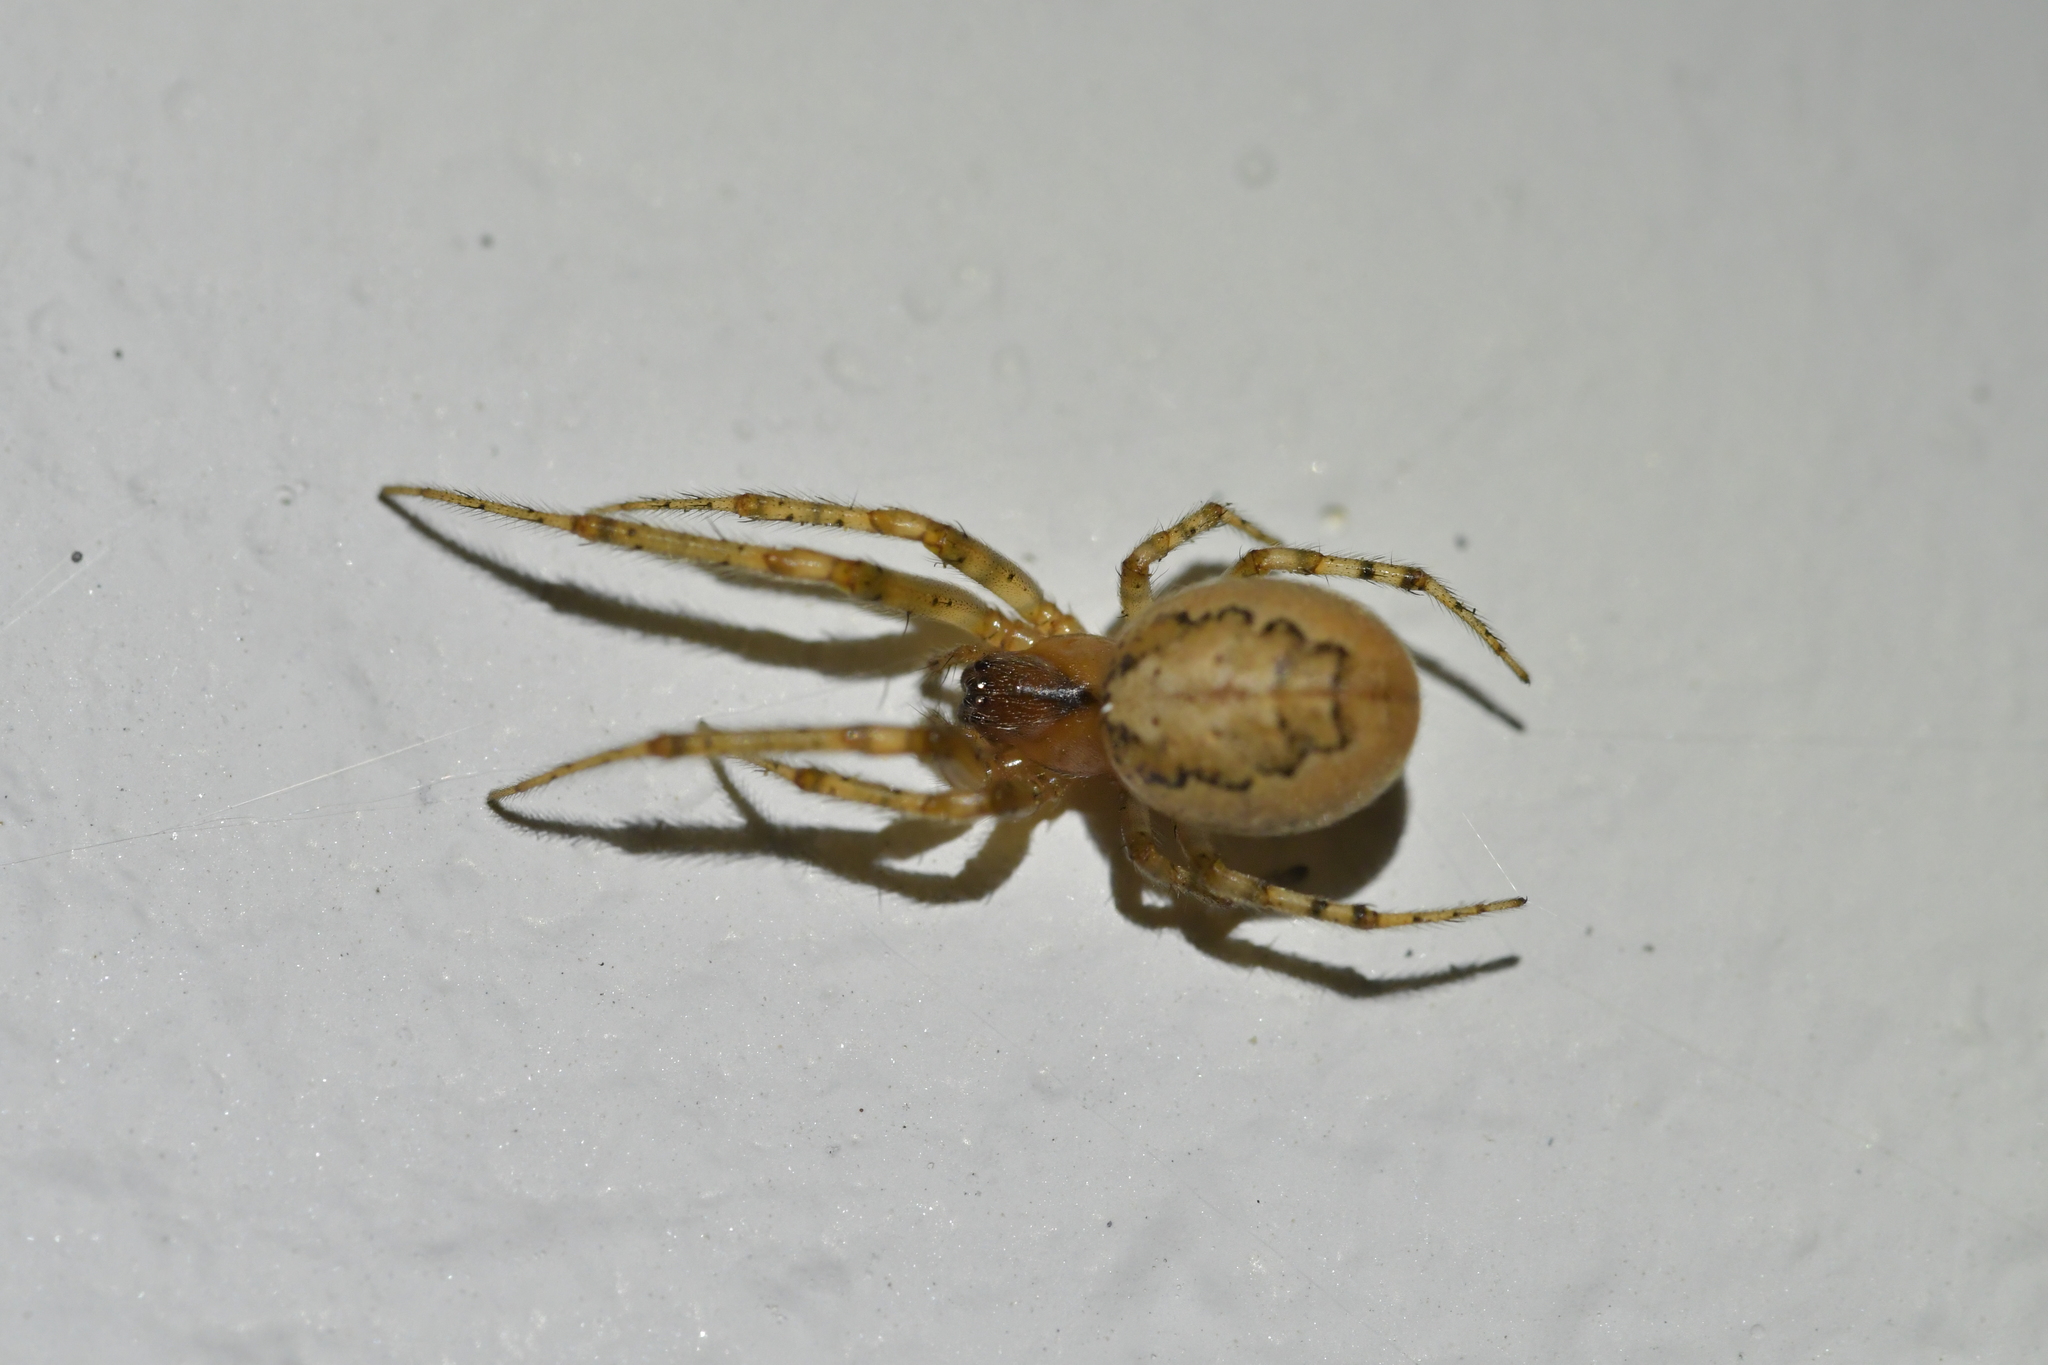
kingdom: Animalia
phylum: Arthropoda
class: Arachnida
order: Araneae
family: Araneidae
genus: Zygiella
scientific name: Zygiella x-notata
